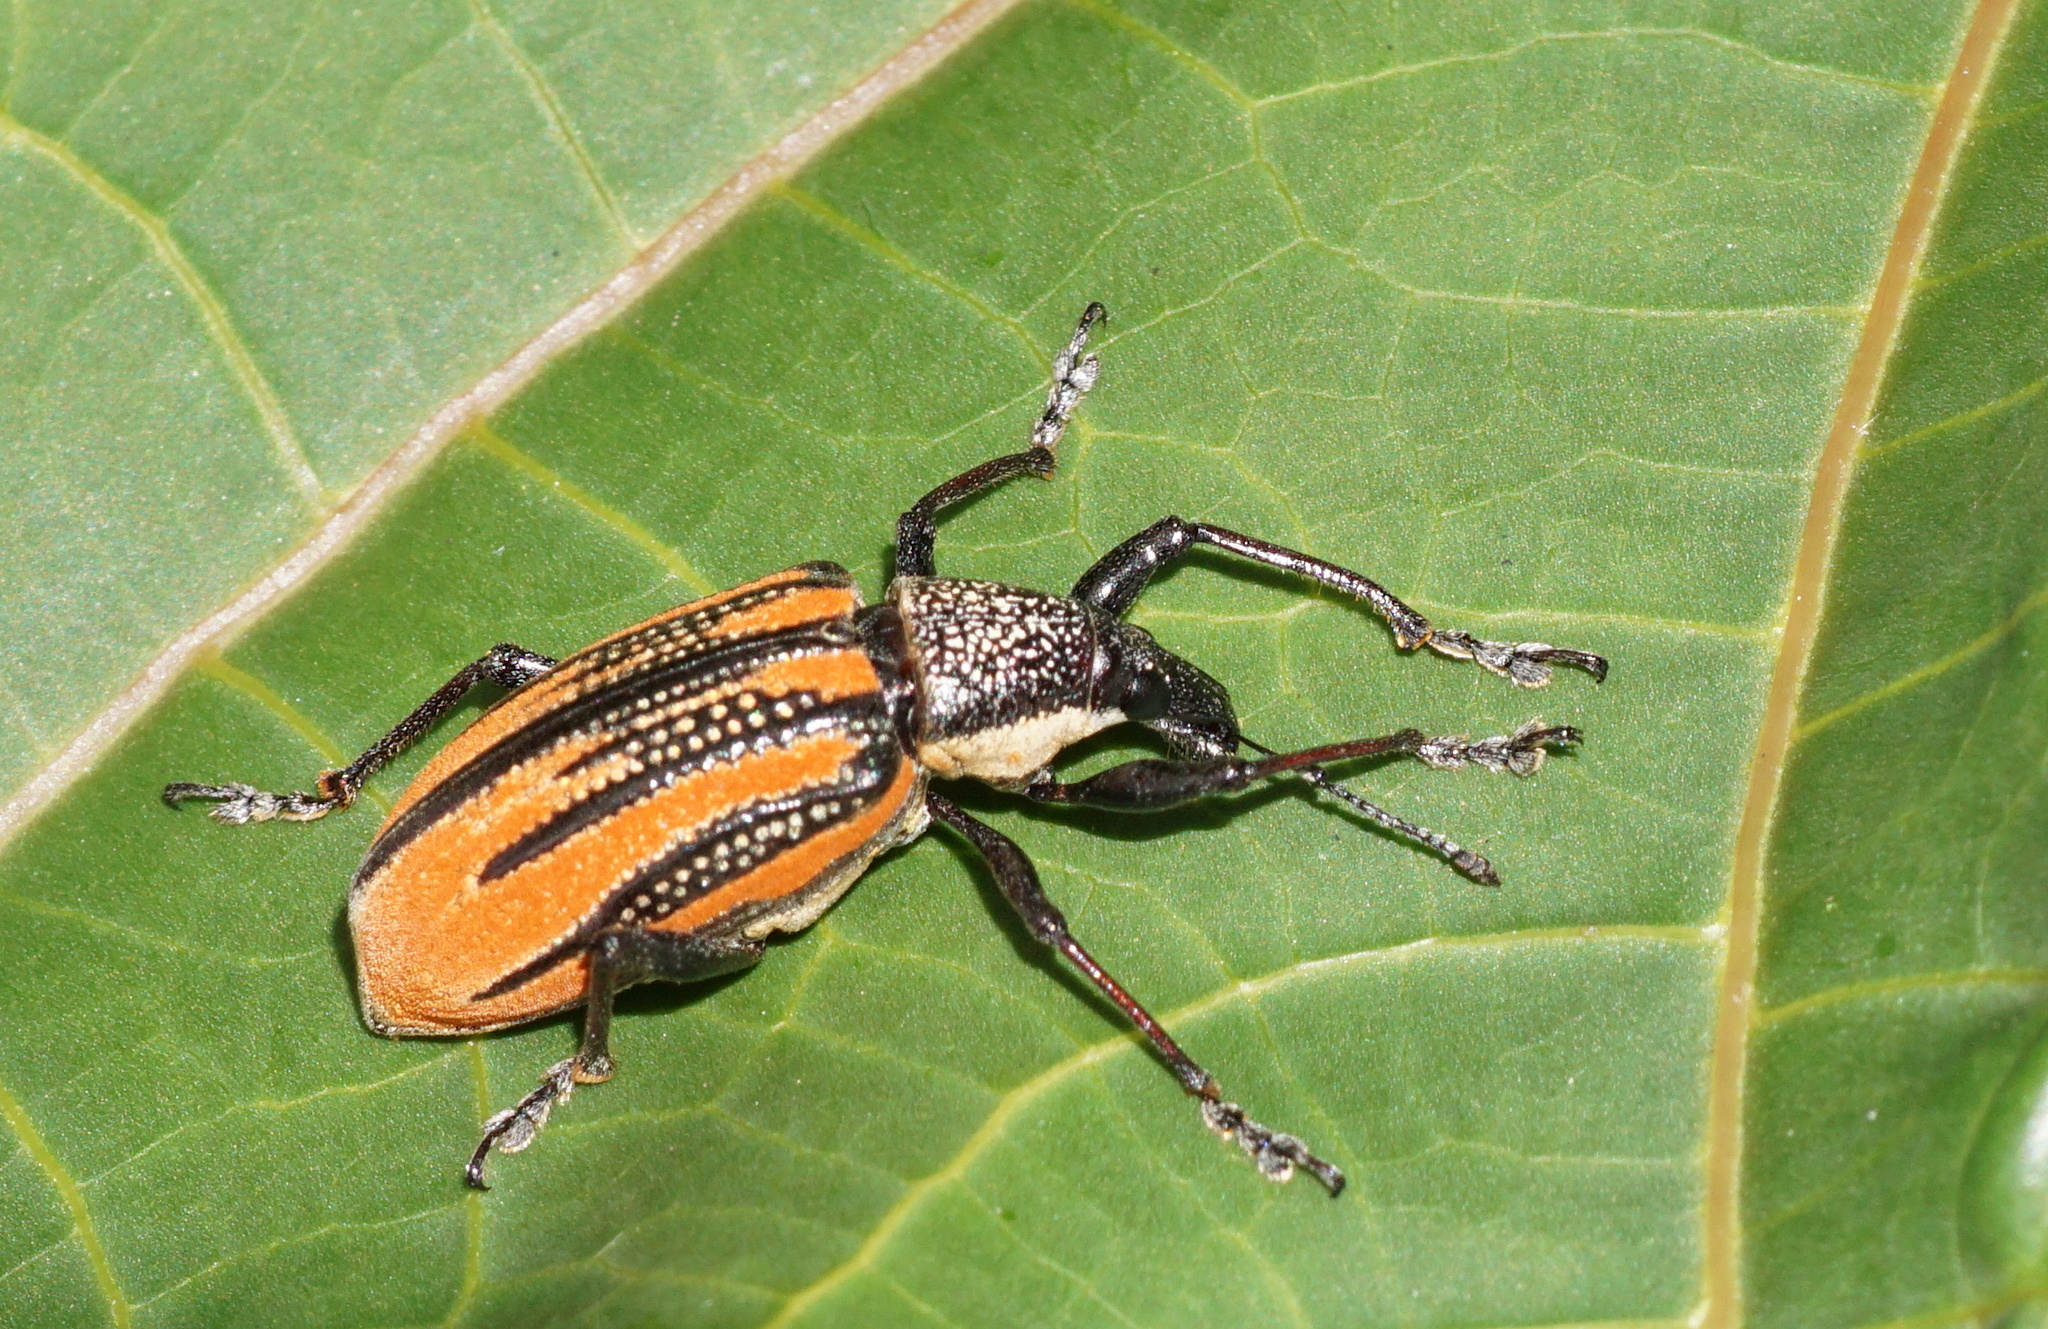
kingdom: Animalia
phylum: Arthropoda
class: Insecta
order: Coleoptera
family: Curculionidae
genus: Diaprepes
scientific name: Diaprepes abbreviatus
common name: Root weevil
